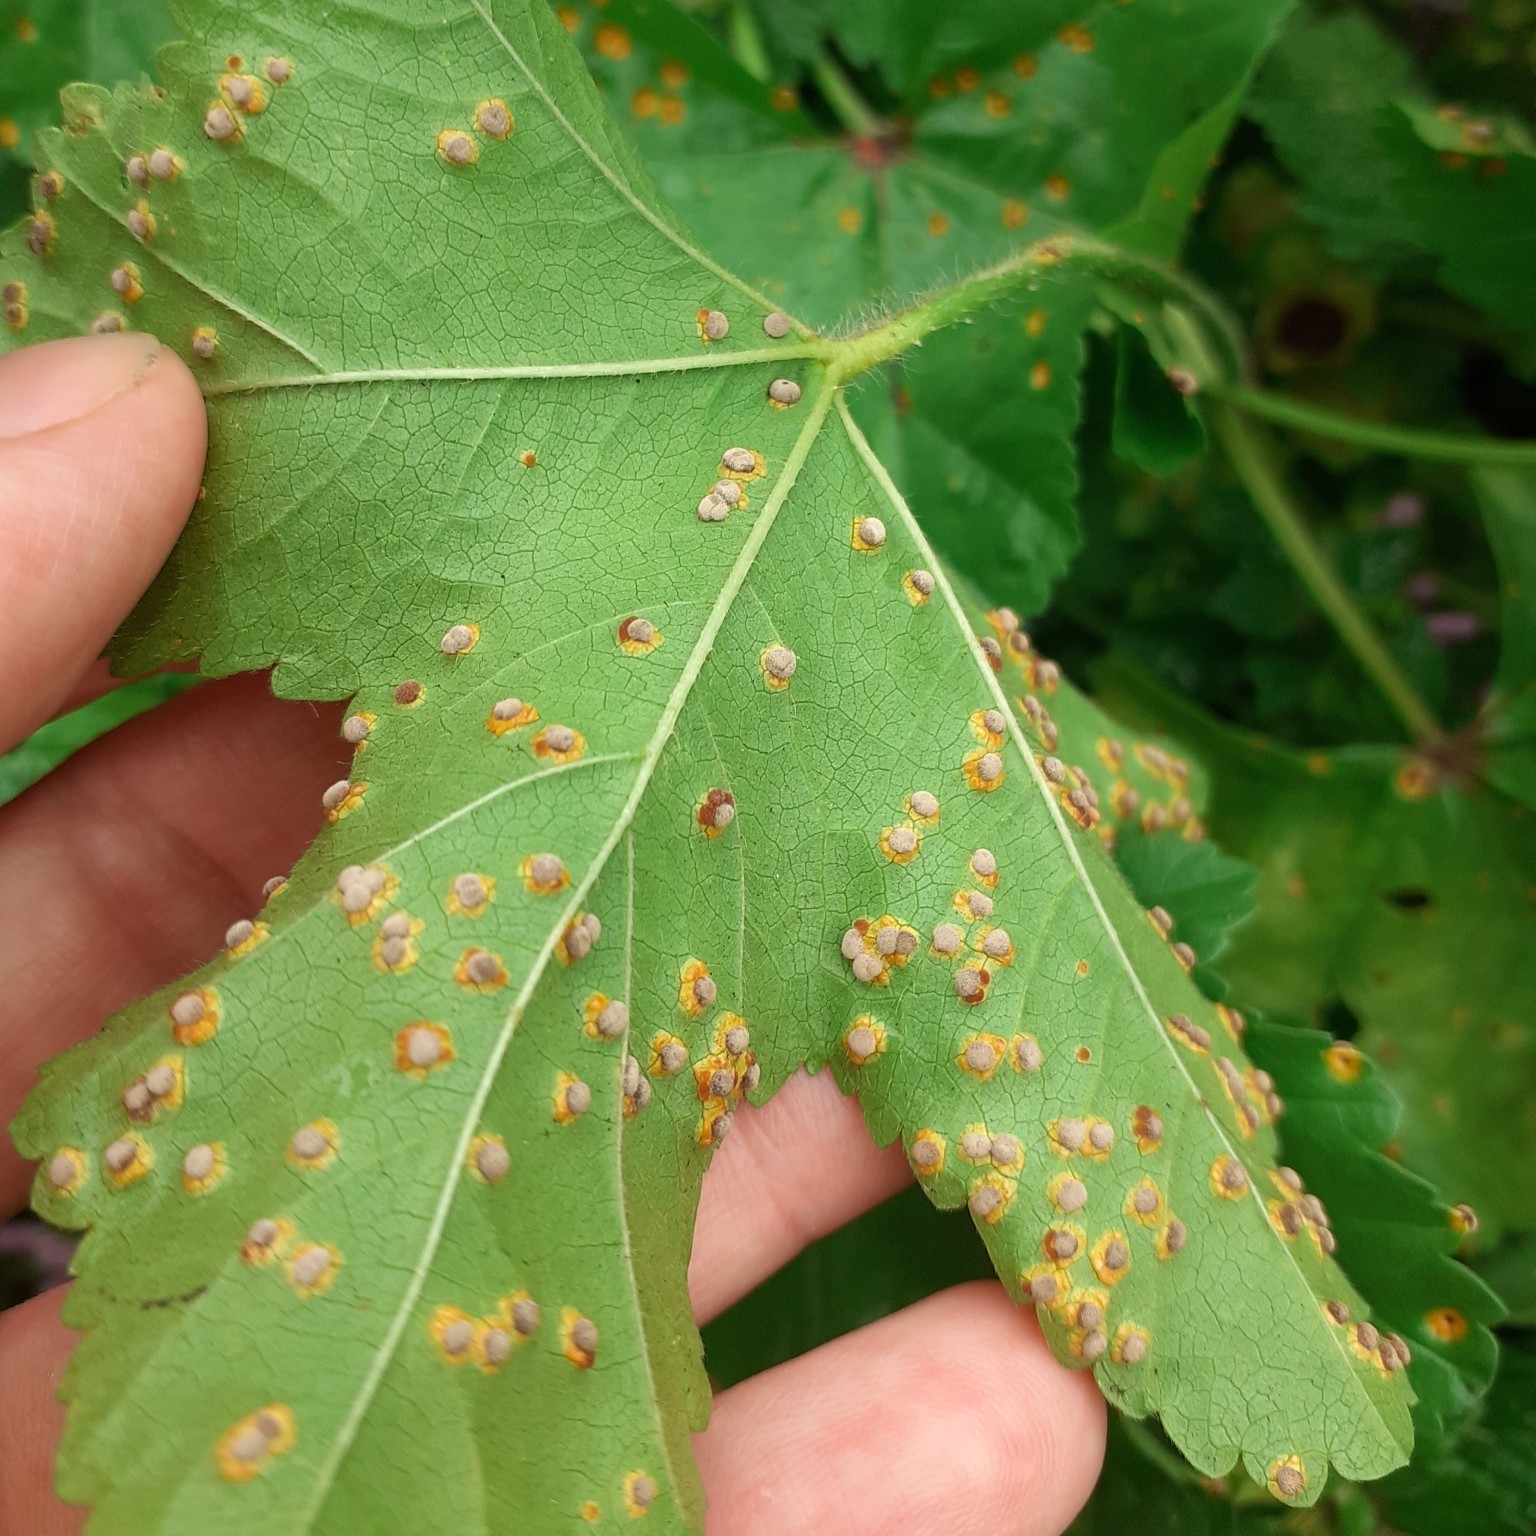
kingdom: Fungi
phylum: Basidiomycota
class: Pucciniomycetes
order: Pucciniales
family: Pucciniaceae
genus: Puccinia
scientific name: Puccinia malvacearum
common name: Hollyhock rust
